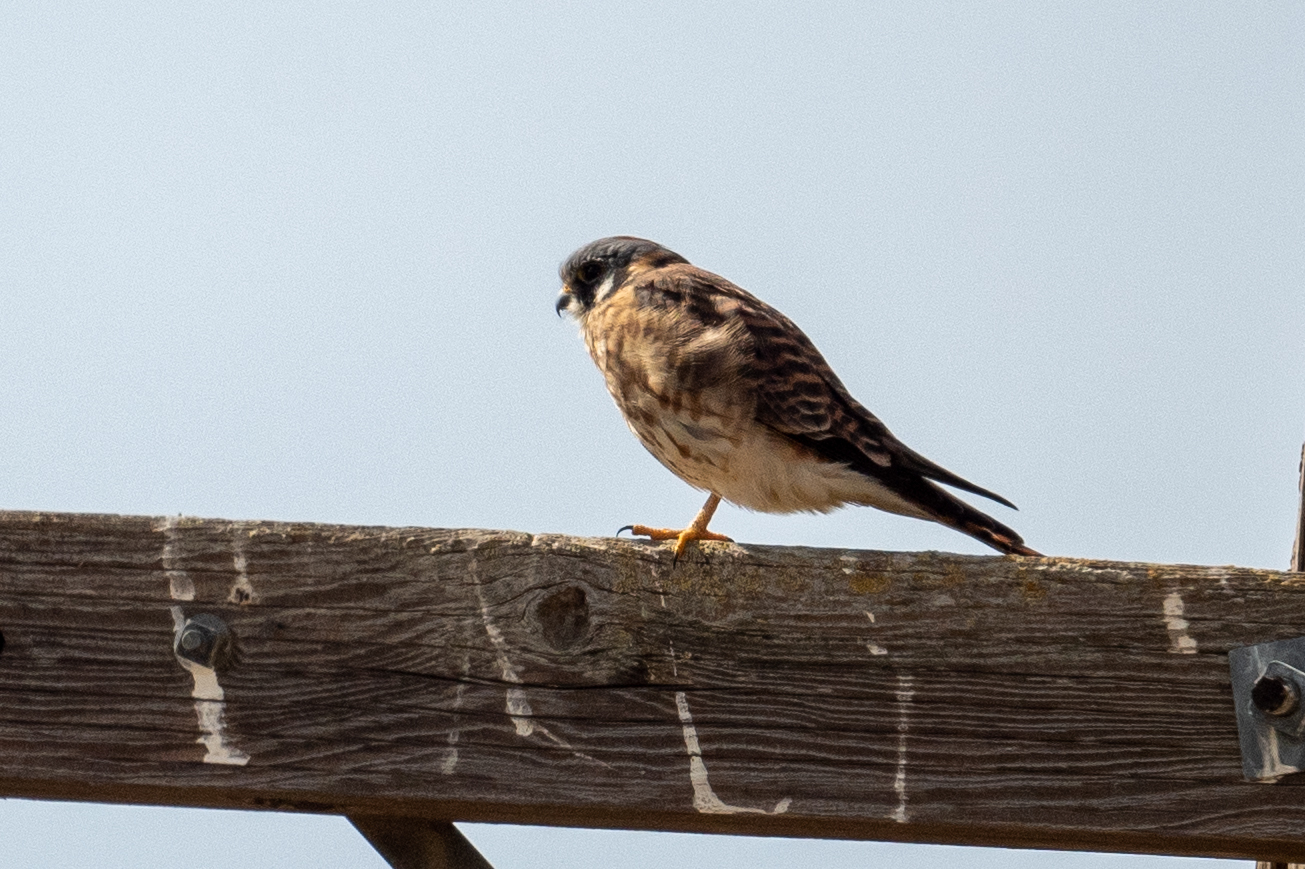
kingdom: Animalia
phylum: Chordata
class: Aves
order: Falconiformes
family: Falconidae
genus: Falco
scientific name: Falco sparverius
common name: American kestrel
